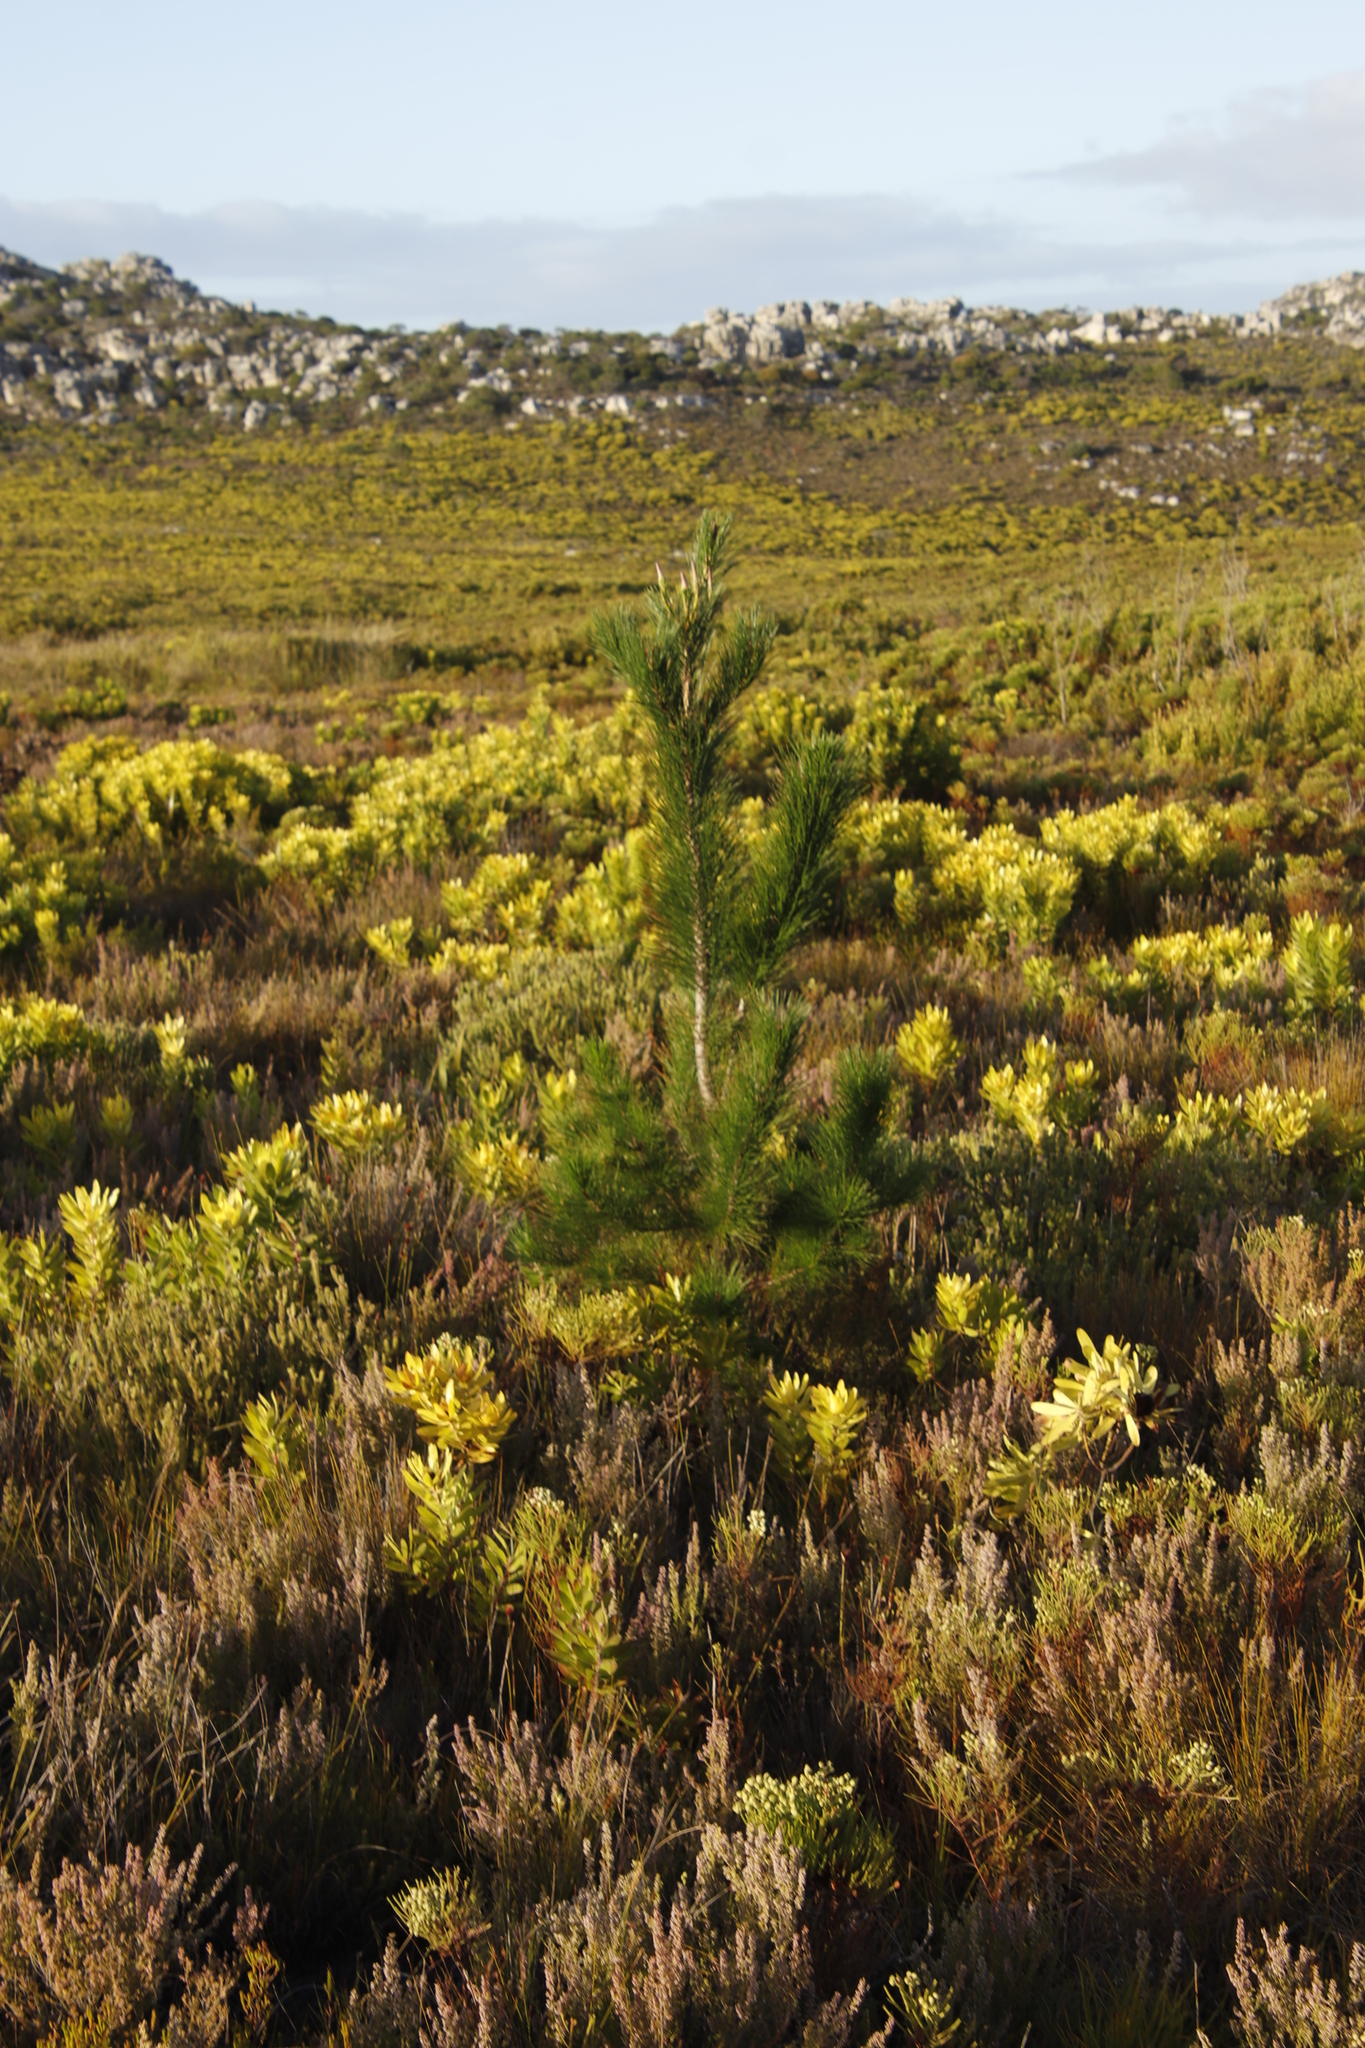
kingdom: Plantae
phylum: Tracheophyta
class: Pinopsida
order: Pinales
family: Pinaceae
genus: Pinus
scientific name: Pinus radiata
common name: Monterey pine
